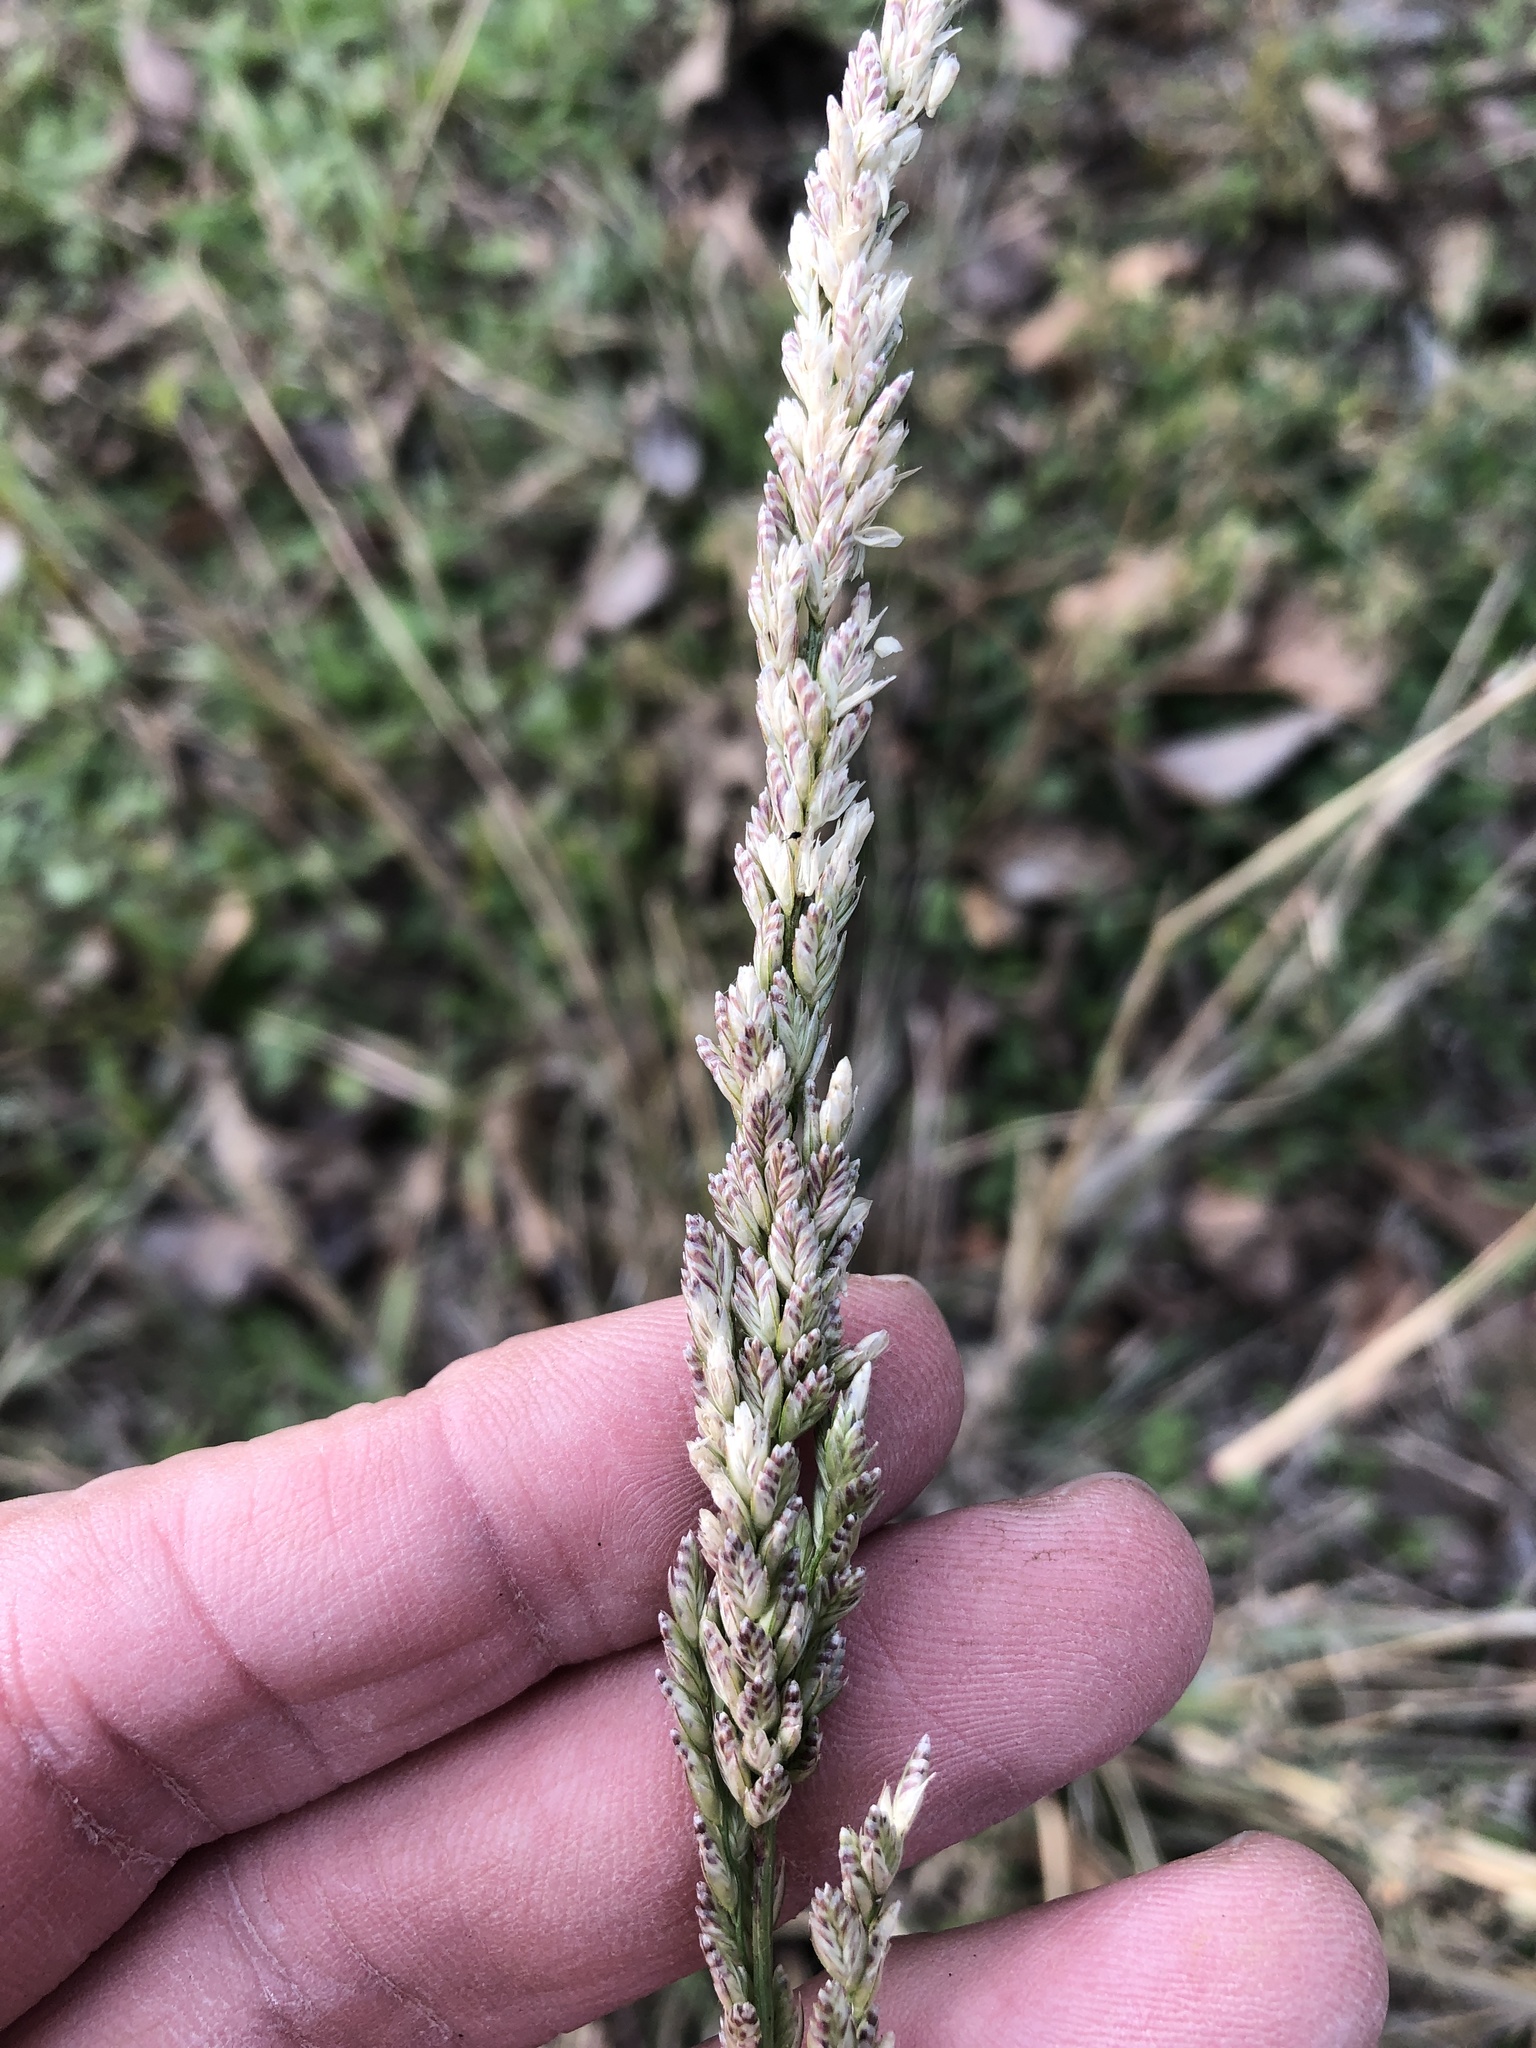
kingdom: Plantae
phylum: Tracheophyta
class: Liliopsida
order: Poales
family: Poaceae
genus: Tridens
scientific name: Tridens albescens
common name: White tridens
